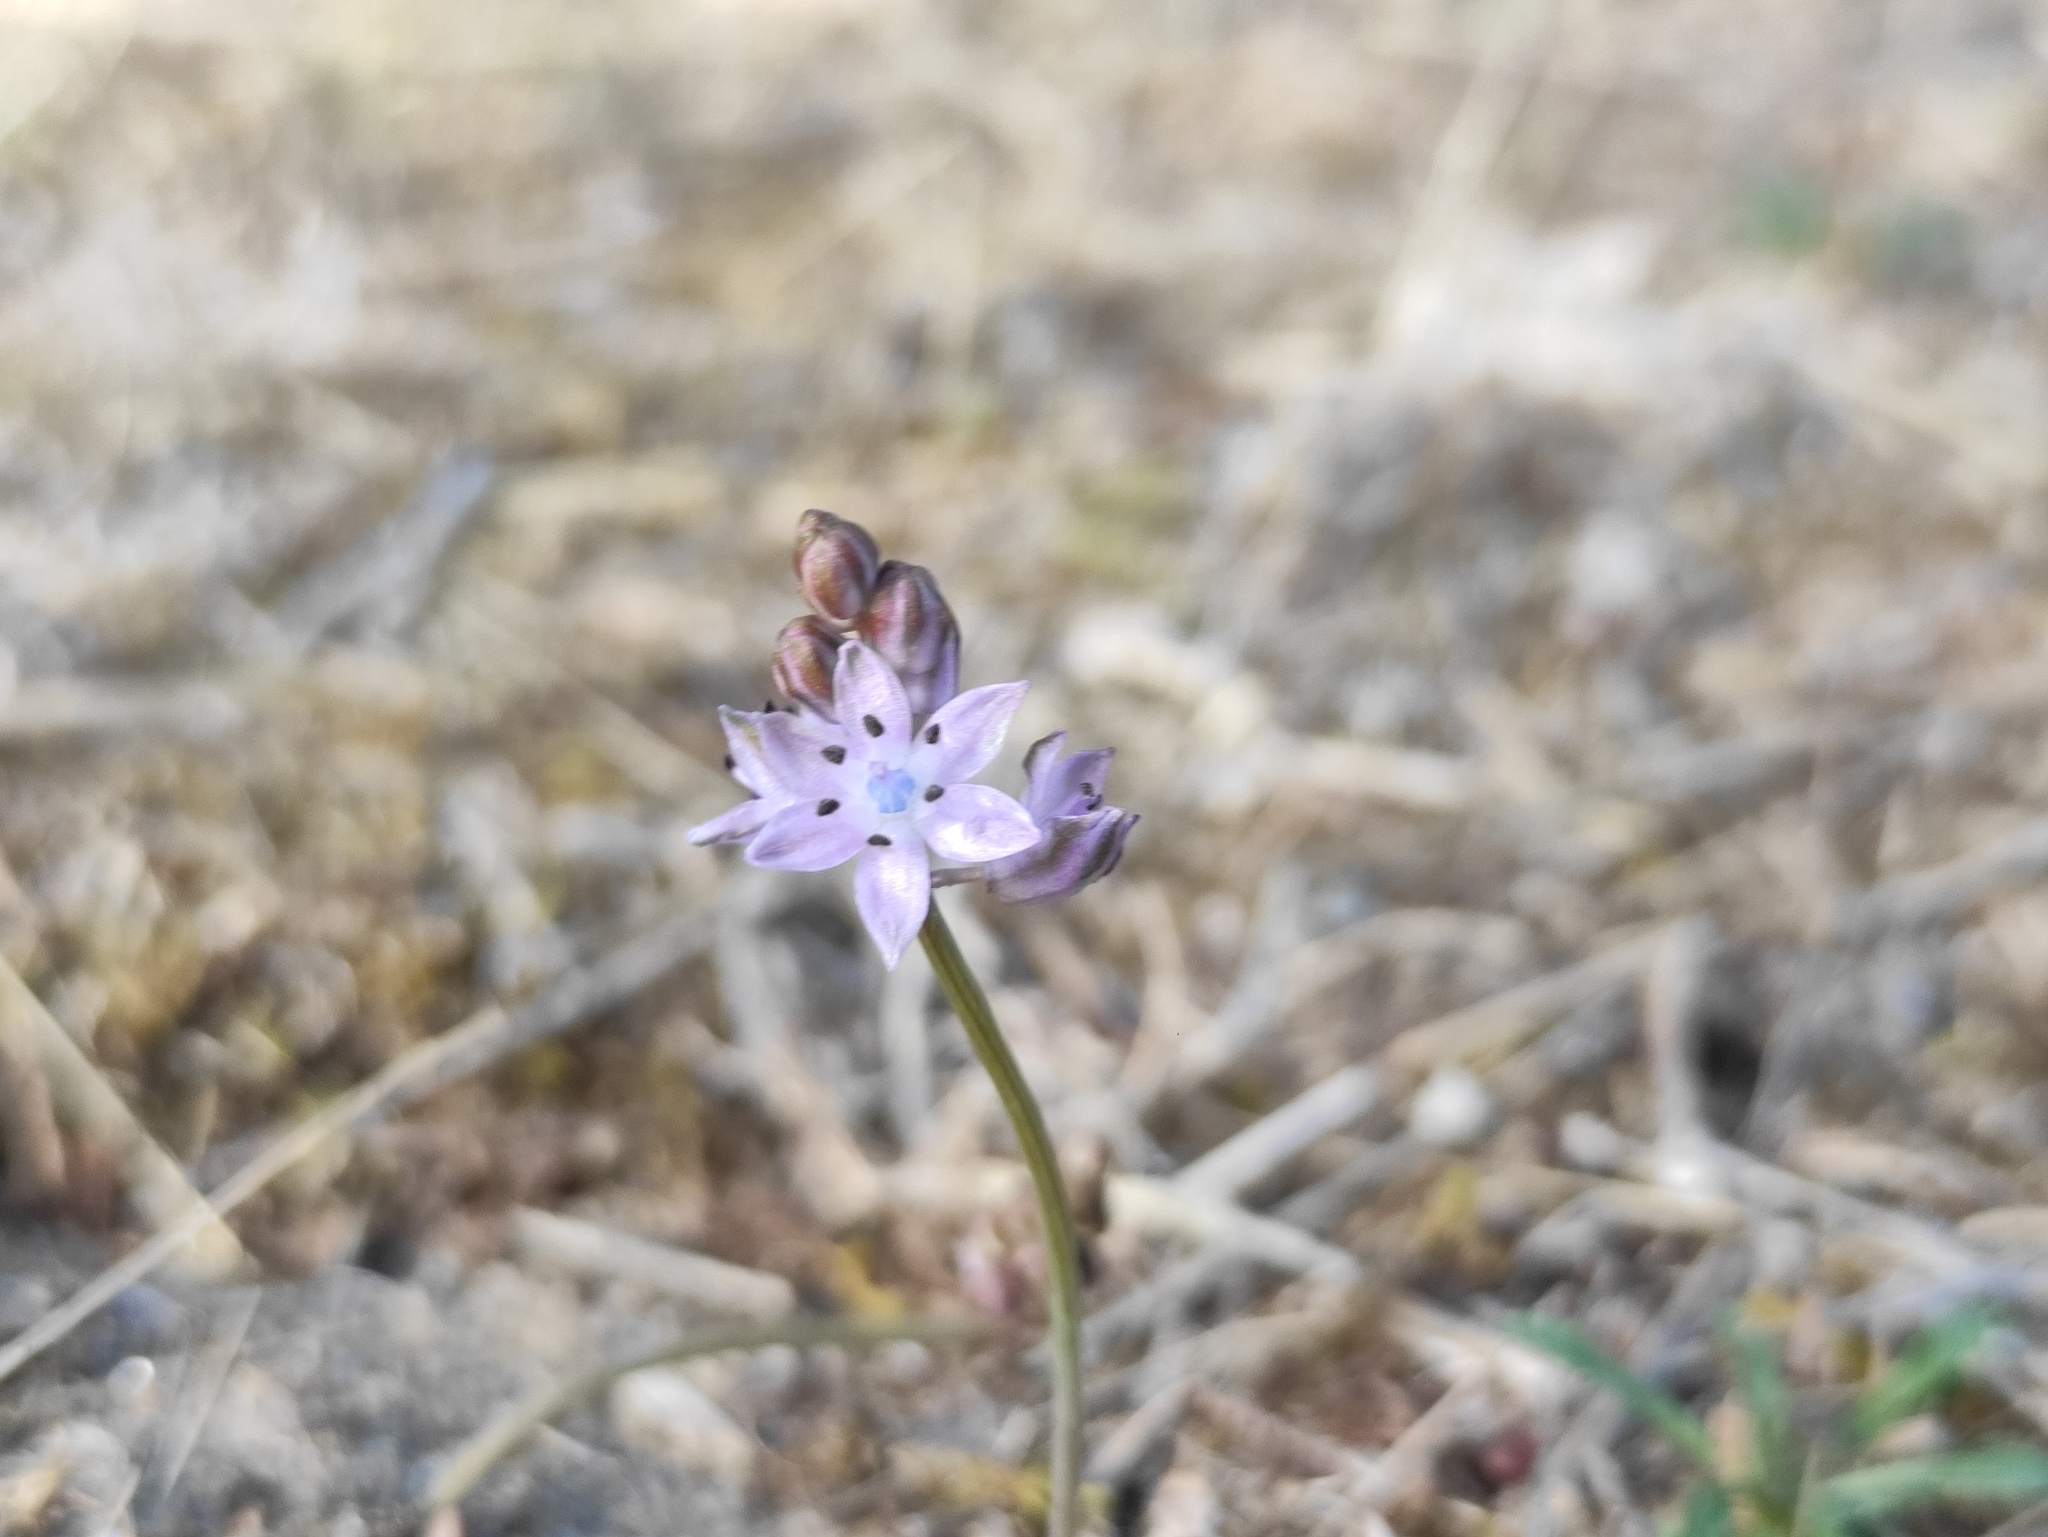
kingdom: Plantae
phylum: Tracheophyta
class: Liliopsida
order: Asparagales
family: Asparagaceae
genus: Prospero
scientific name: Prospero autumnale
